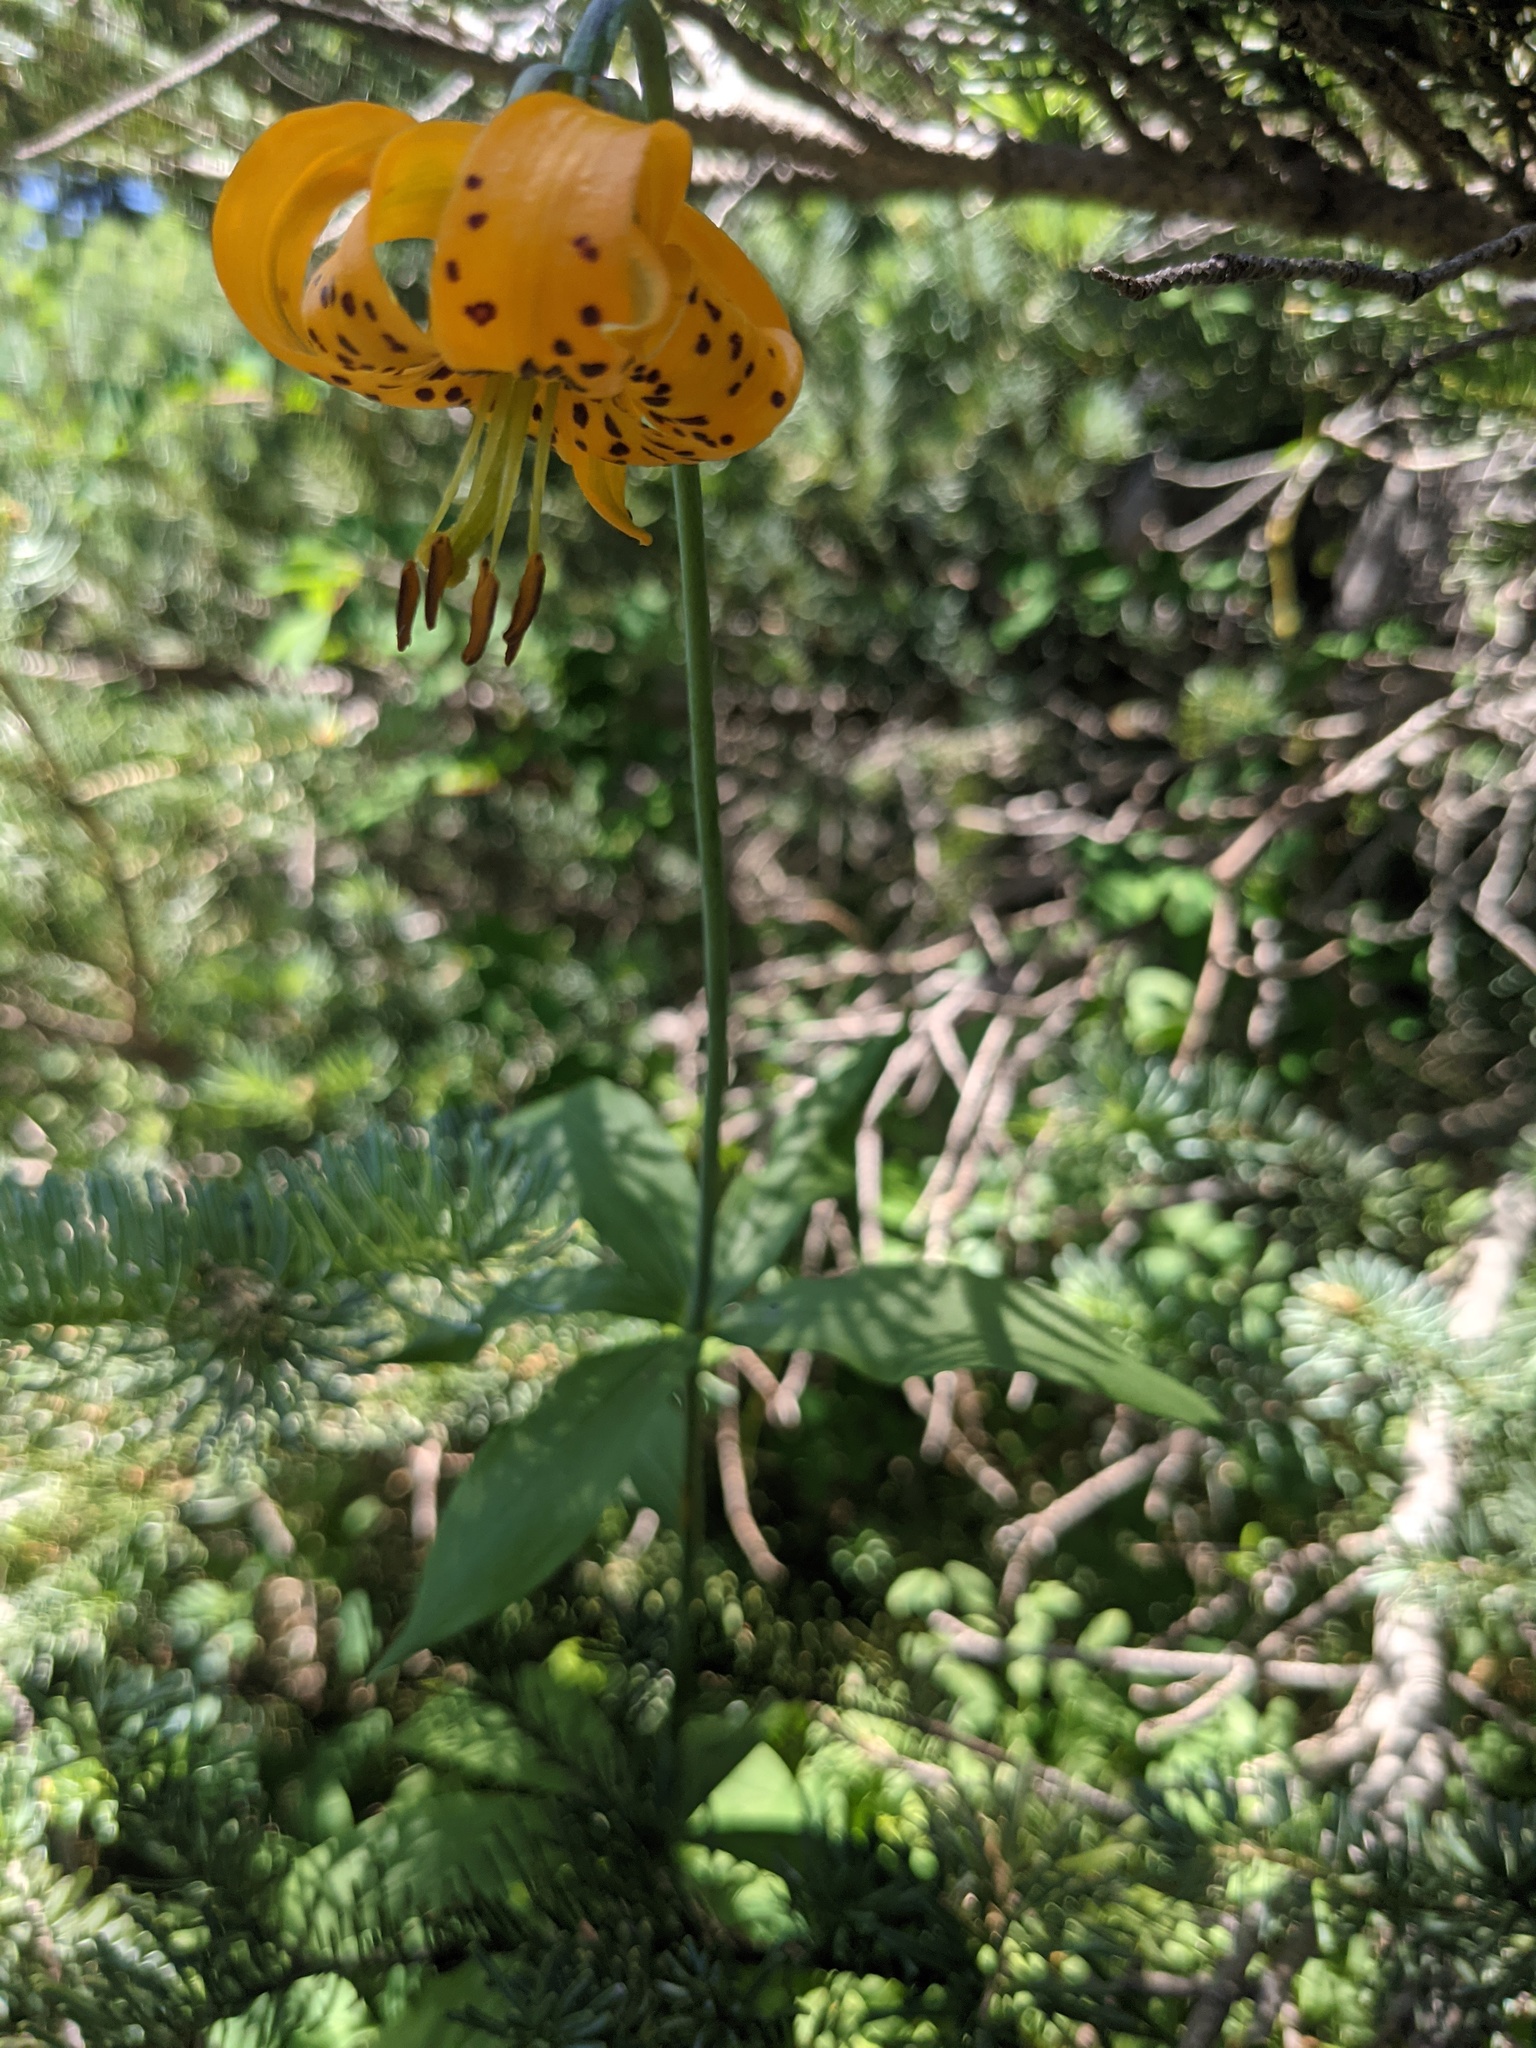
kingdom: Plantae
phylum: Tracheophyta
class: Liliopsida
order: Liliales
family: Liliaceae
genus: Lilium
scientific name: Lilium columbianum
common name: Columbia lily
